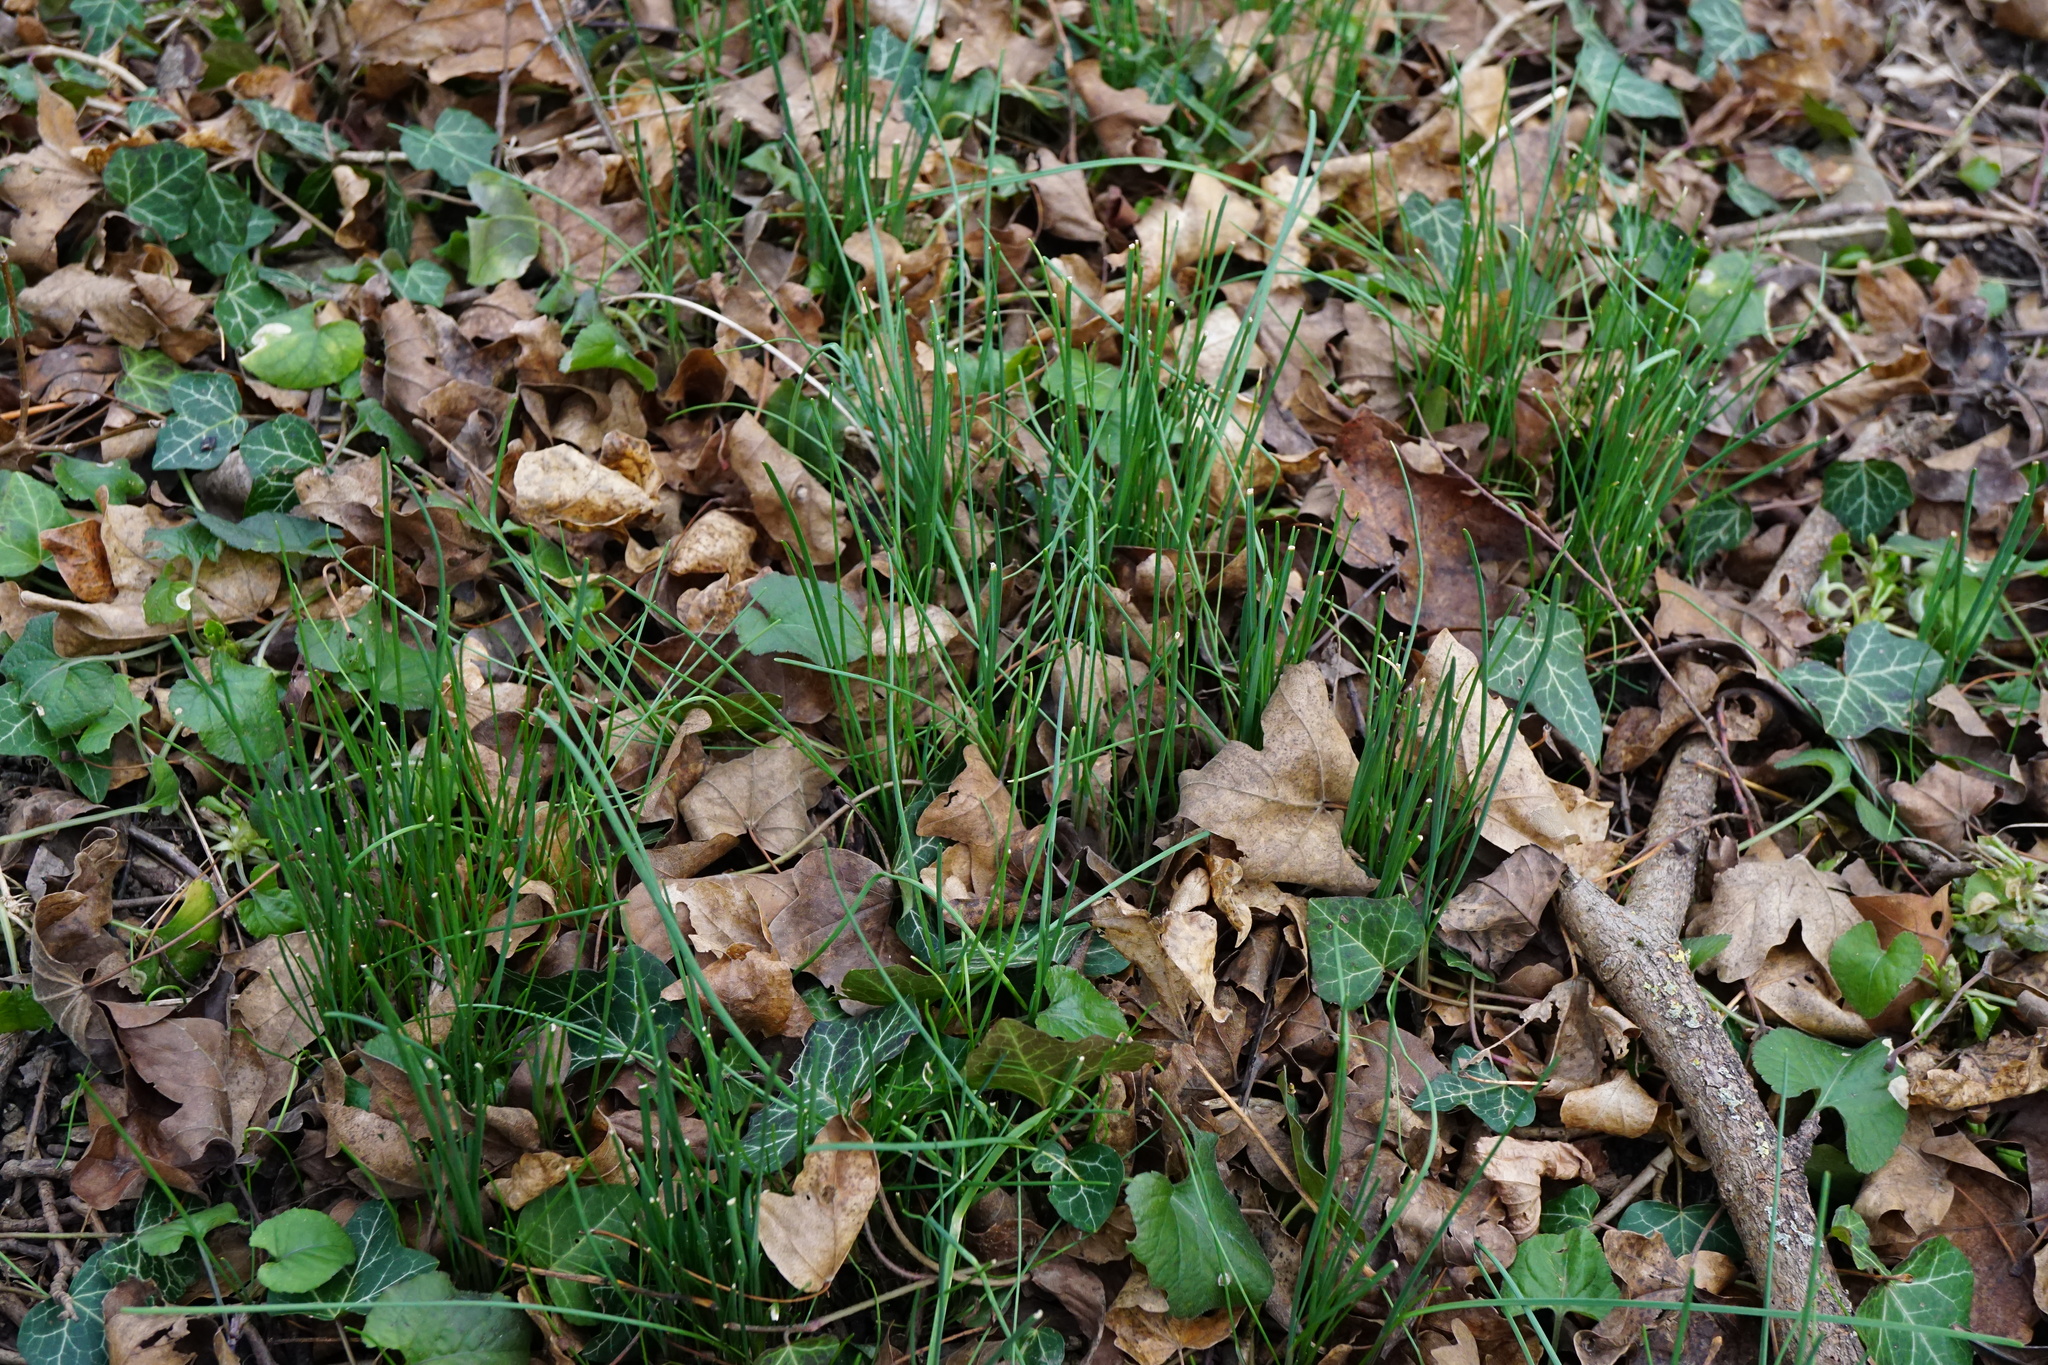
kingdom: Plantae
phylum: Tracheophyta
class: Liliopsida
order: Asparagales
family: Amaryllidaceae
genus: Allium
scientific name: Allium oleraceum
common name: Field garlic
